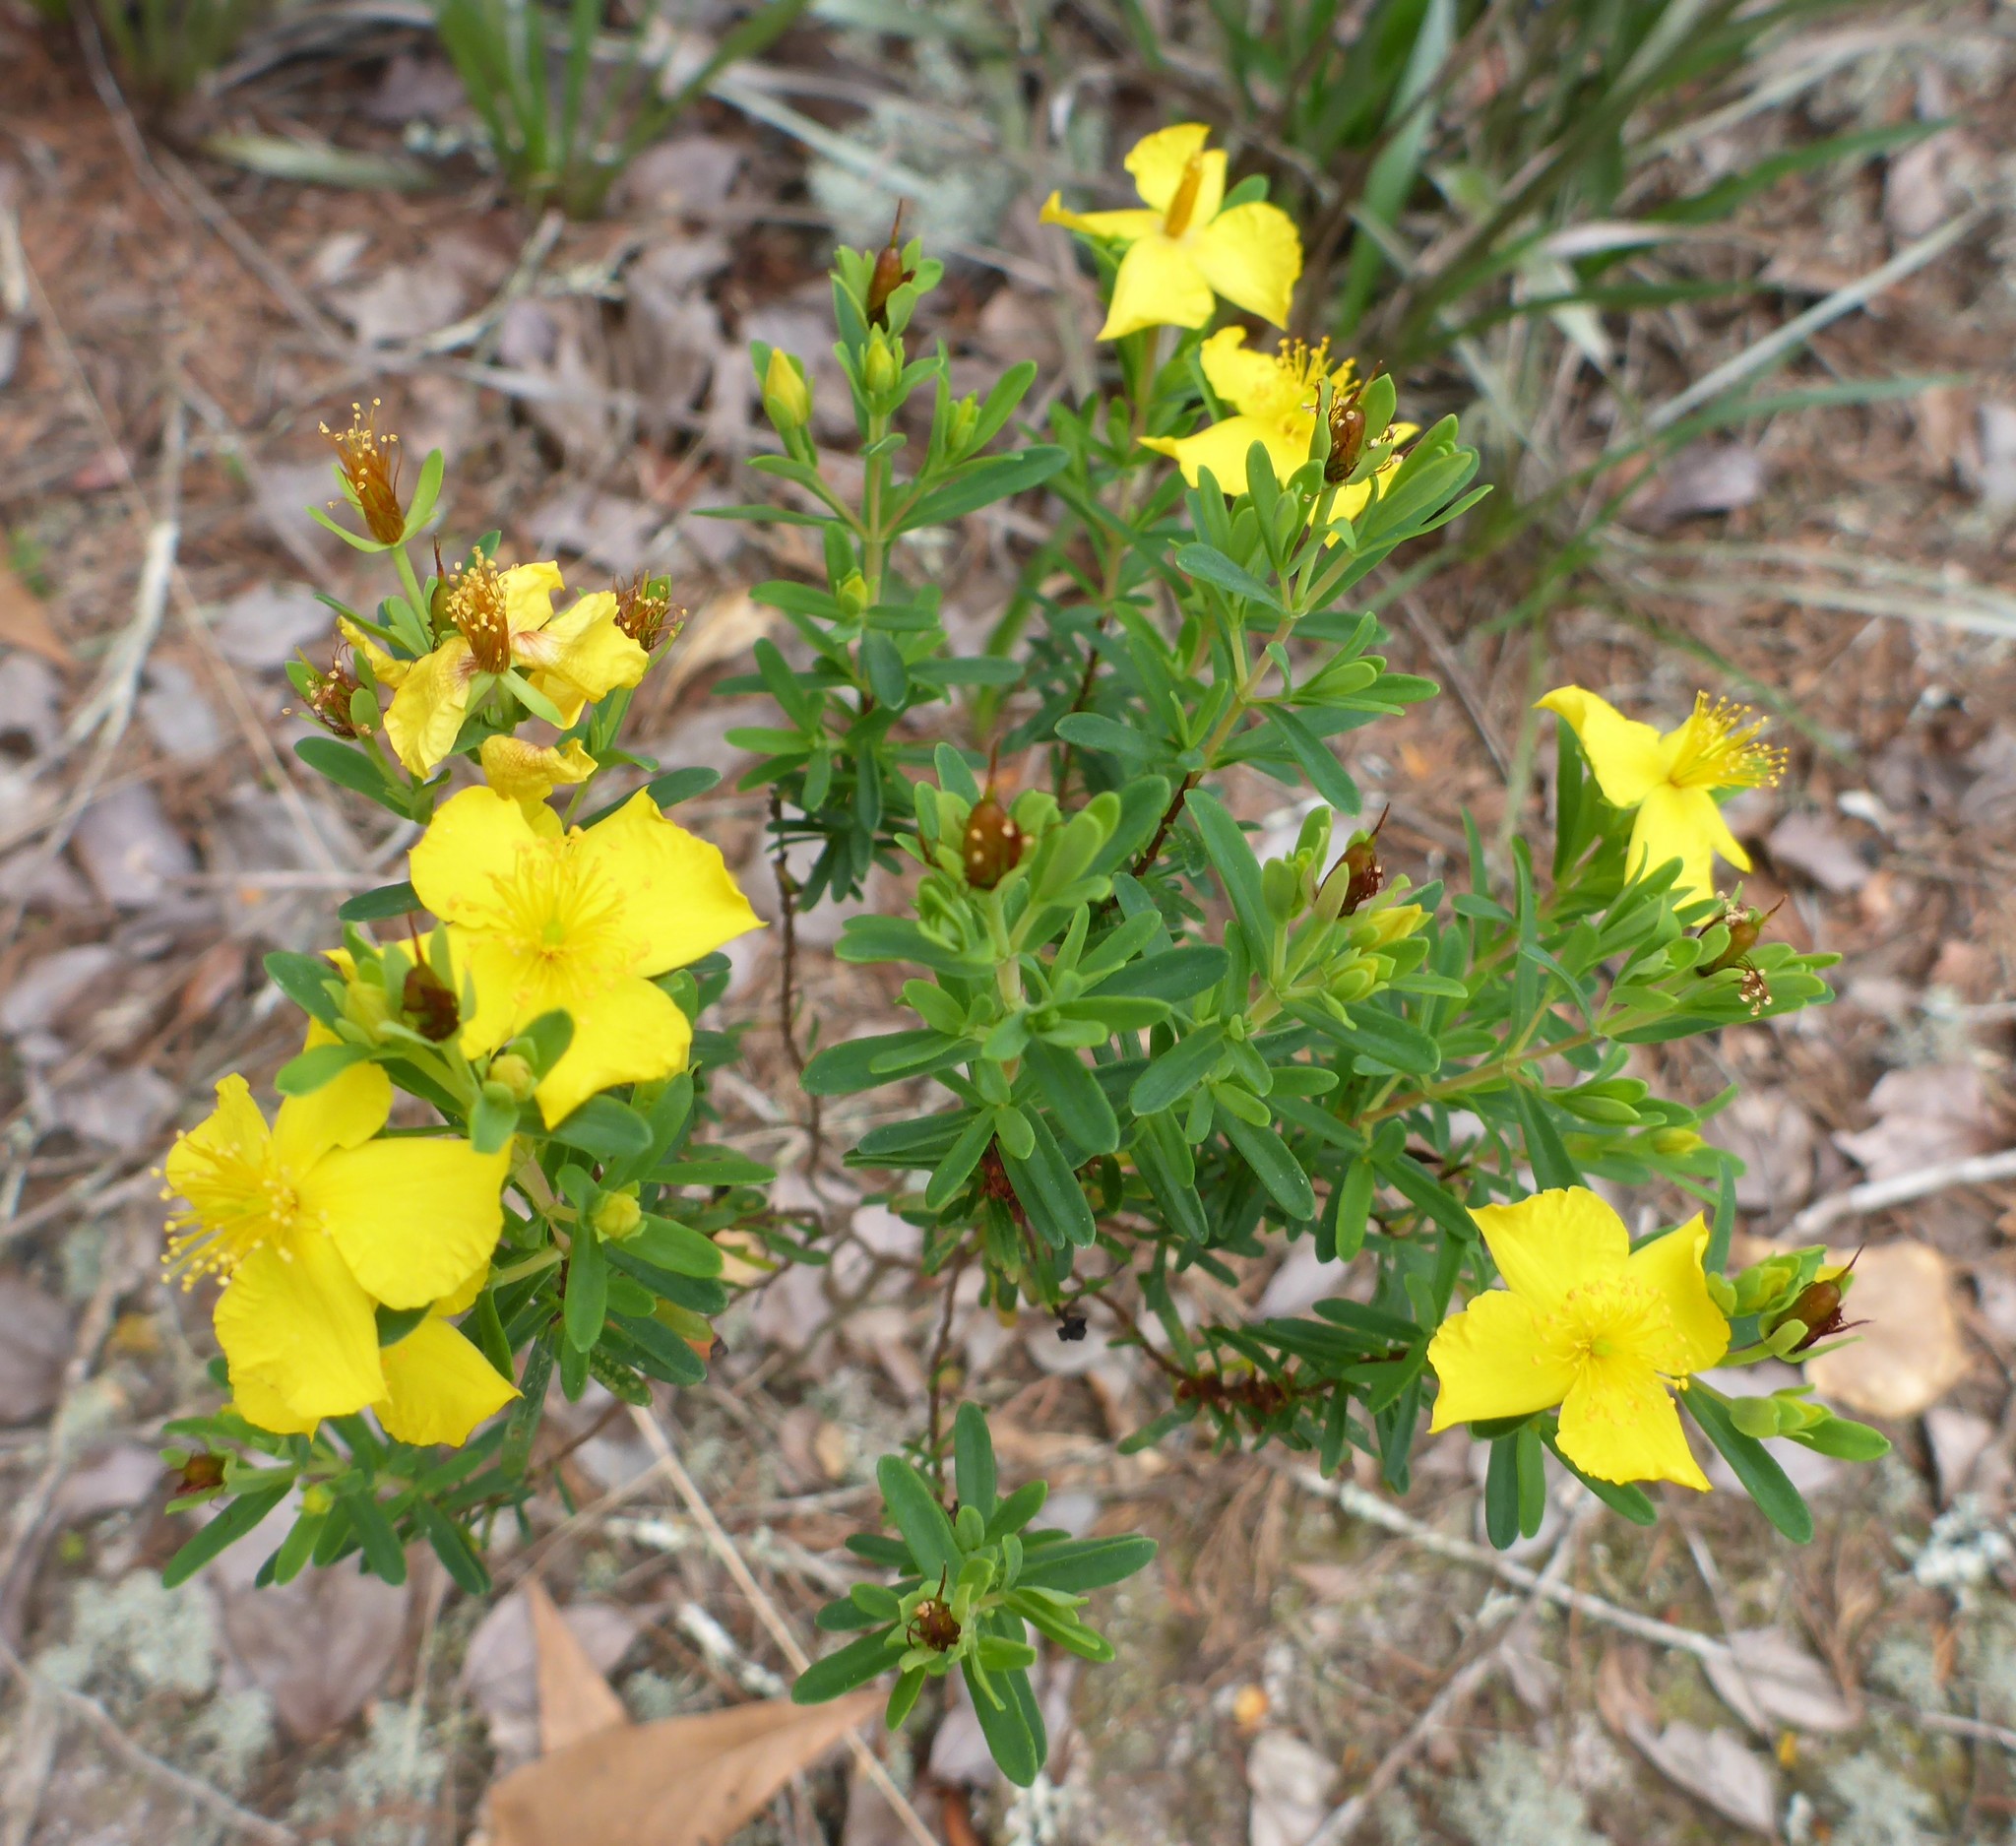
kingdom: Plantae
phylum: Tracheophyta
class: Magnoliopsida
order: Malpighiales
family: Hypericaceae
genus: Hypericum
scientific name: Hypericum microsepalum
